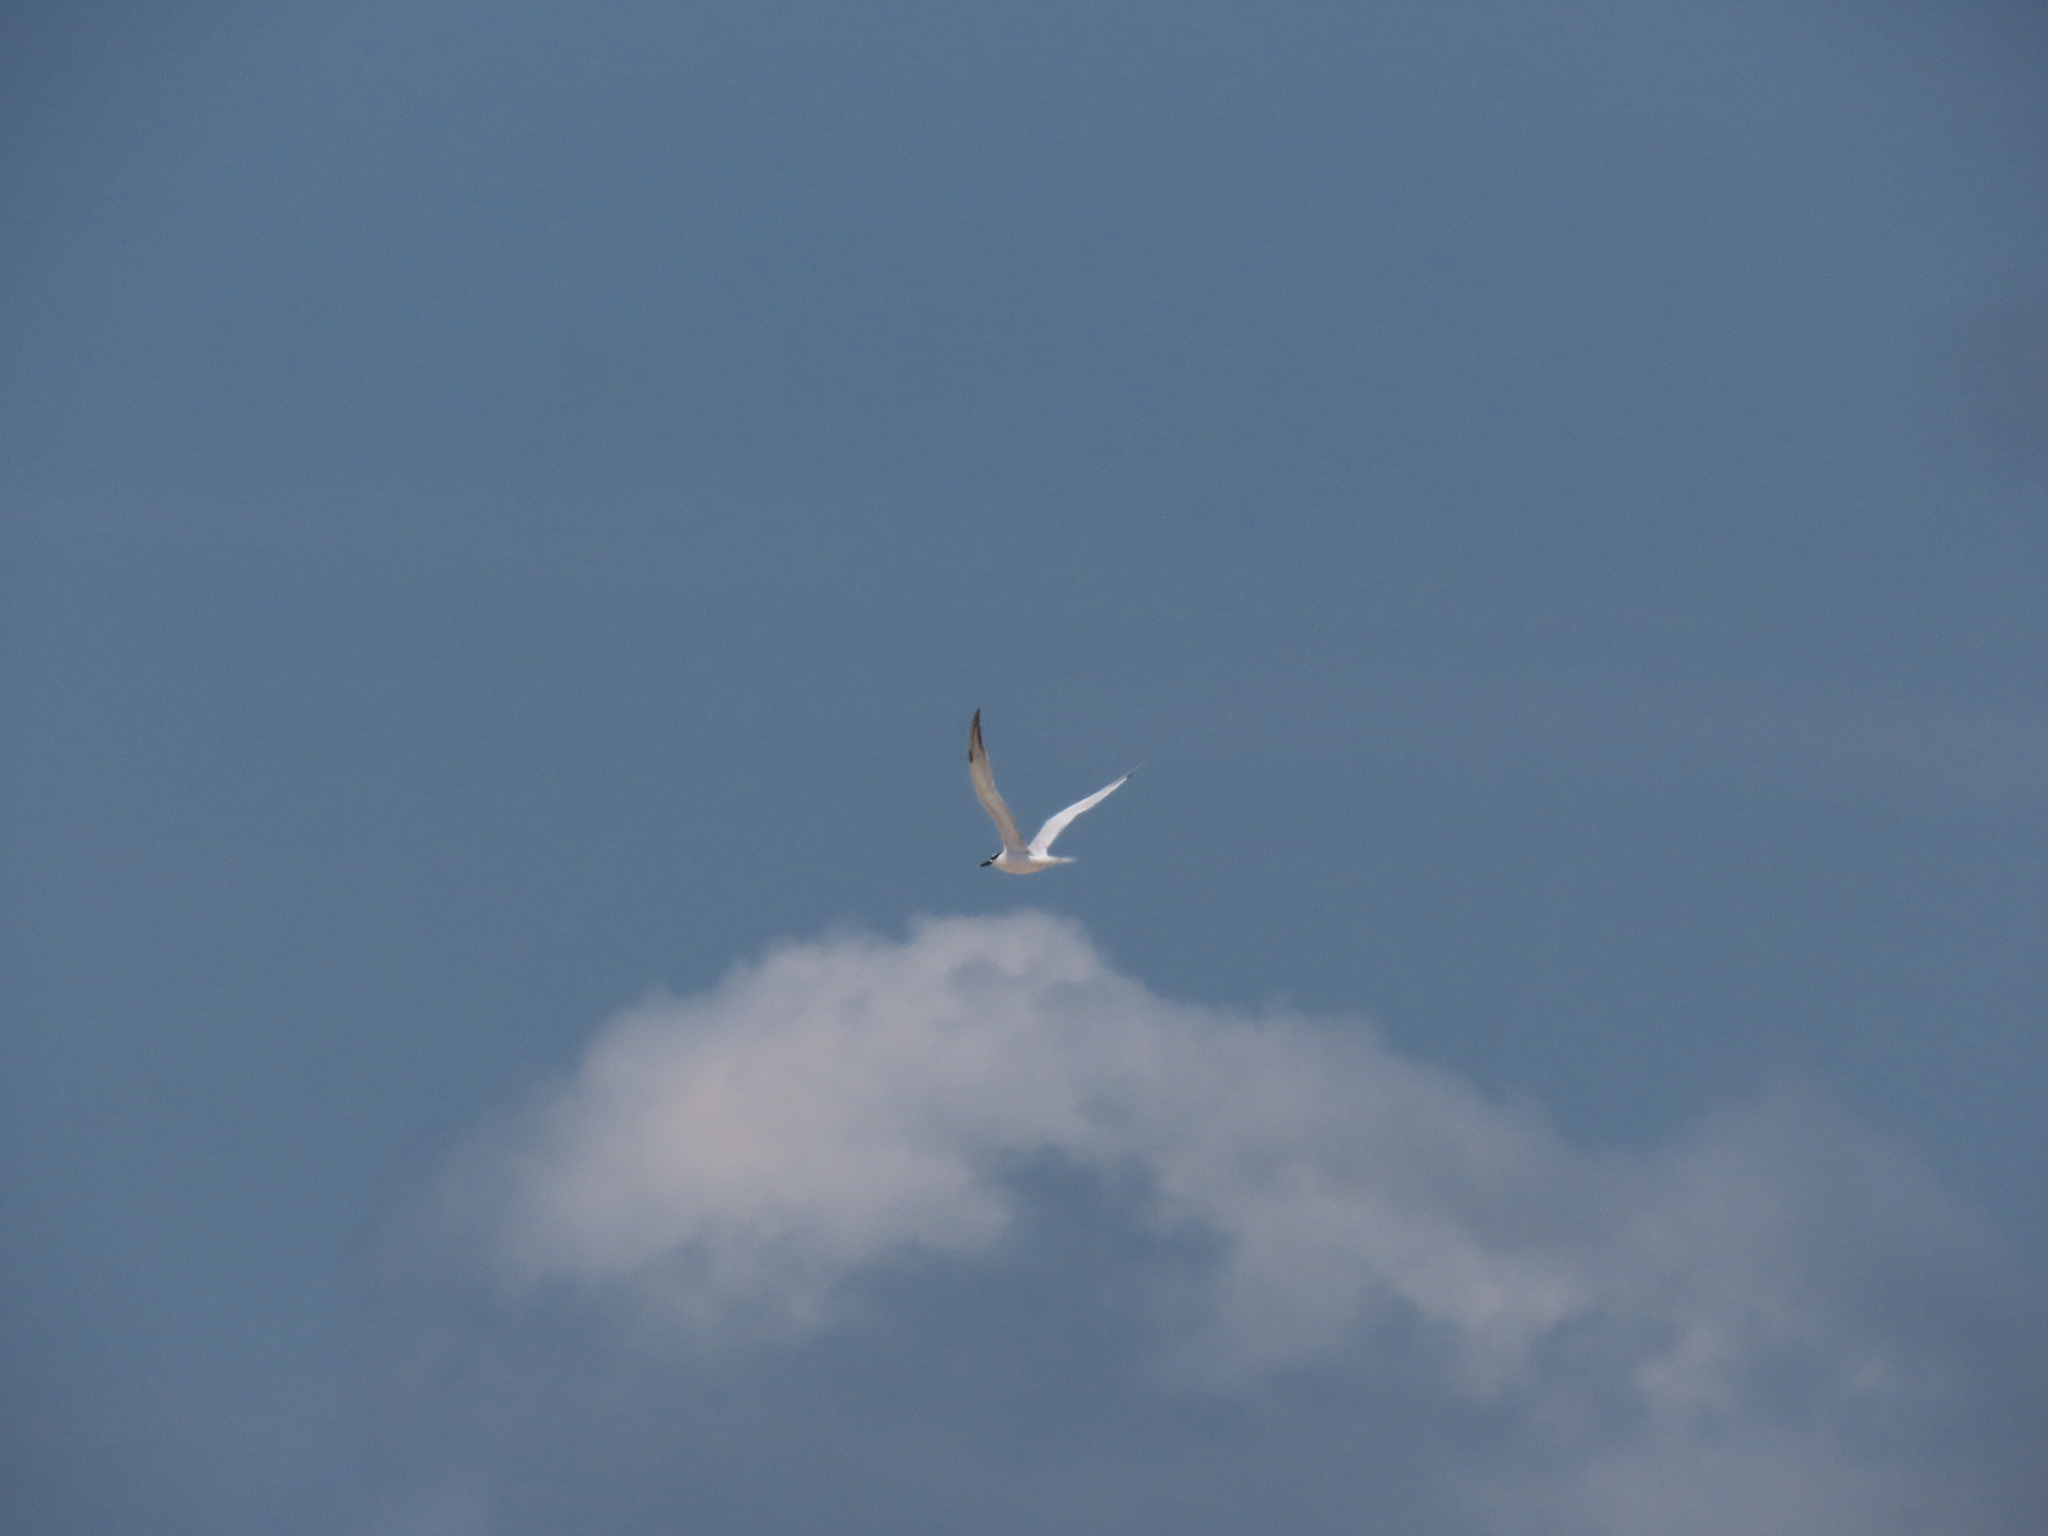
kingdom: Animalia
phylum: Chordata
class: Aves
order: Charadriiformes
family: Laridae
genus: Thalasseus
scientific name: Thalasseus sandvicensis
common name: Sandwich tern
